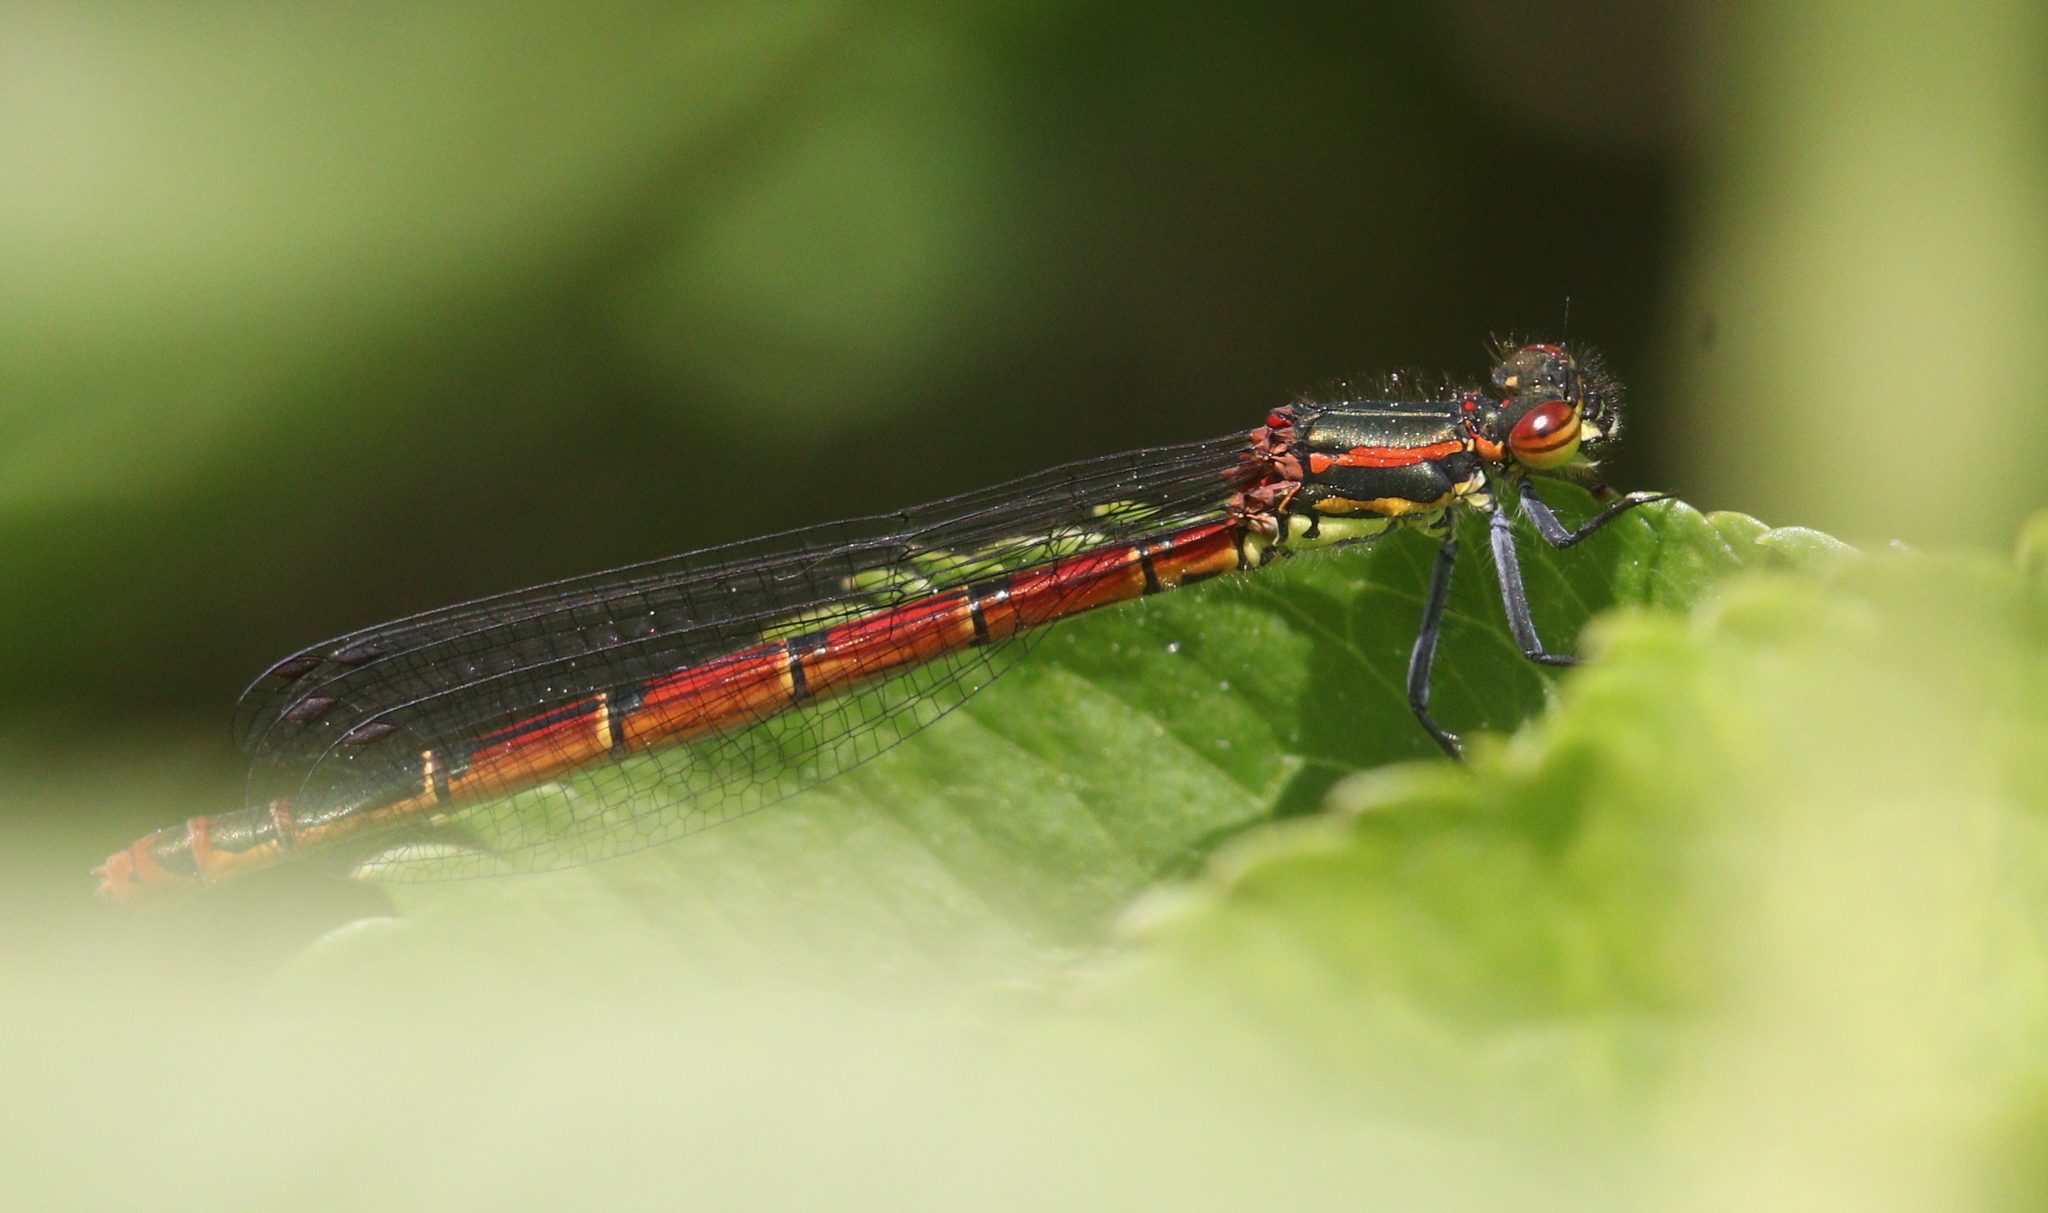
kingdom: Animalia
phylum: Arthropoda
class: Insecta
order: Odonata
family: Coenagrionidae
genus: Pyrrhosoma
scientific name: Pyrrhosoma nymphula
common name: Large red damsel
